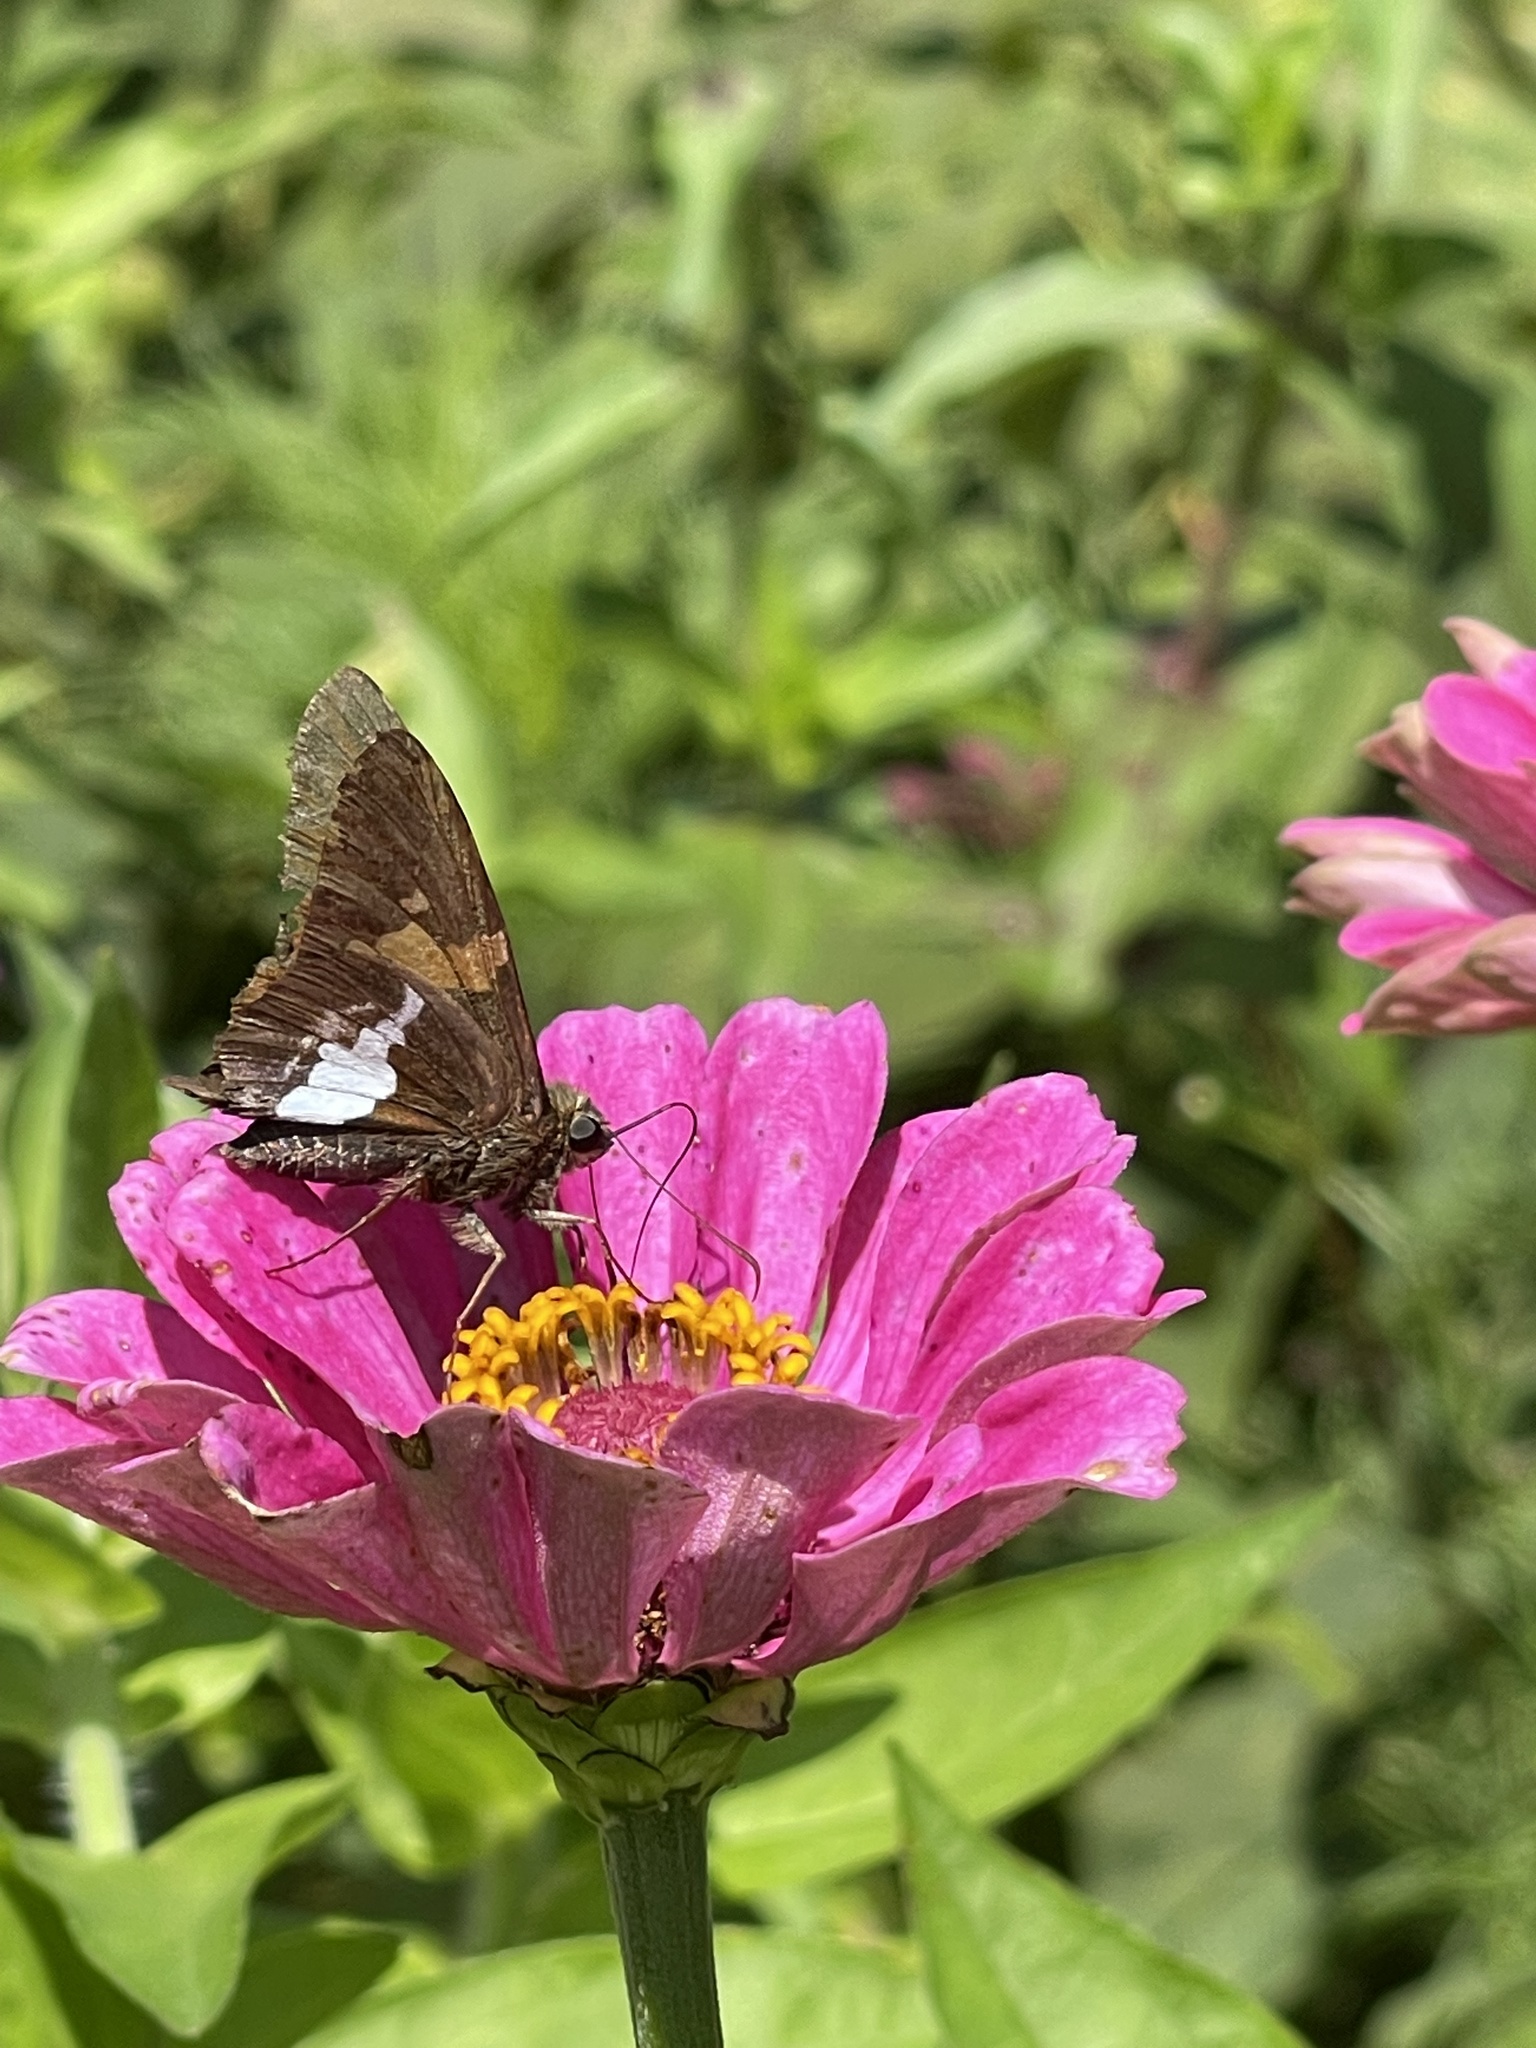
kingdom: Animalia
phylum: Arthropoda
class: Insecta
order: Lepidoptera
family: Hesperiidae
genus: Epargyreus
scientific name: Epargyreus clarus
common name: Silver-spotted skipper
